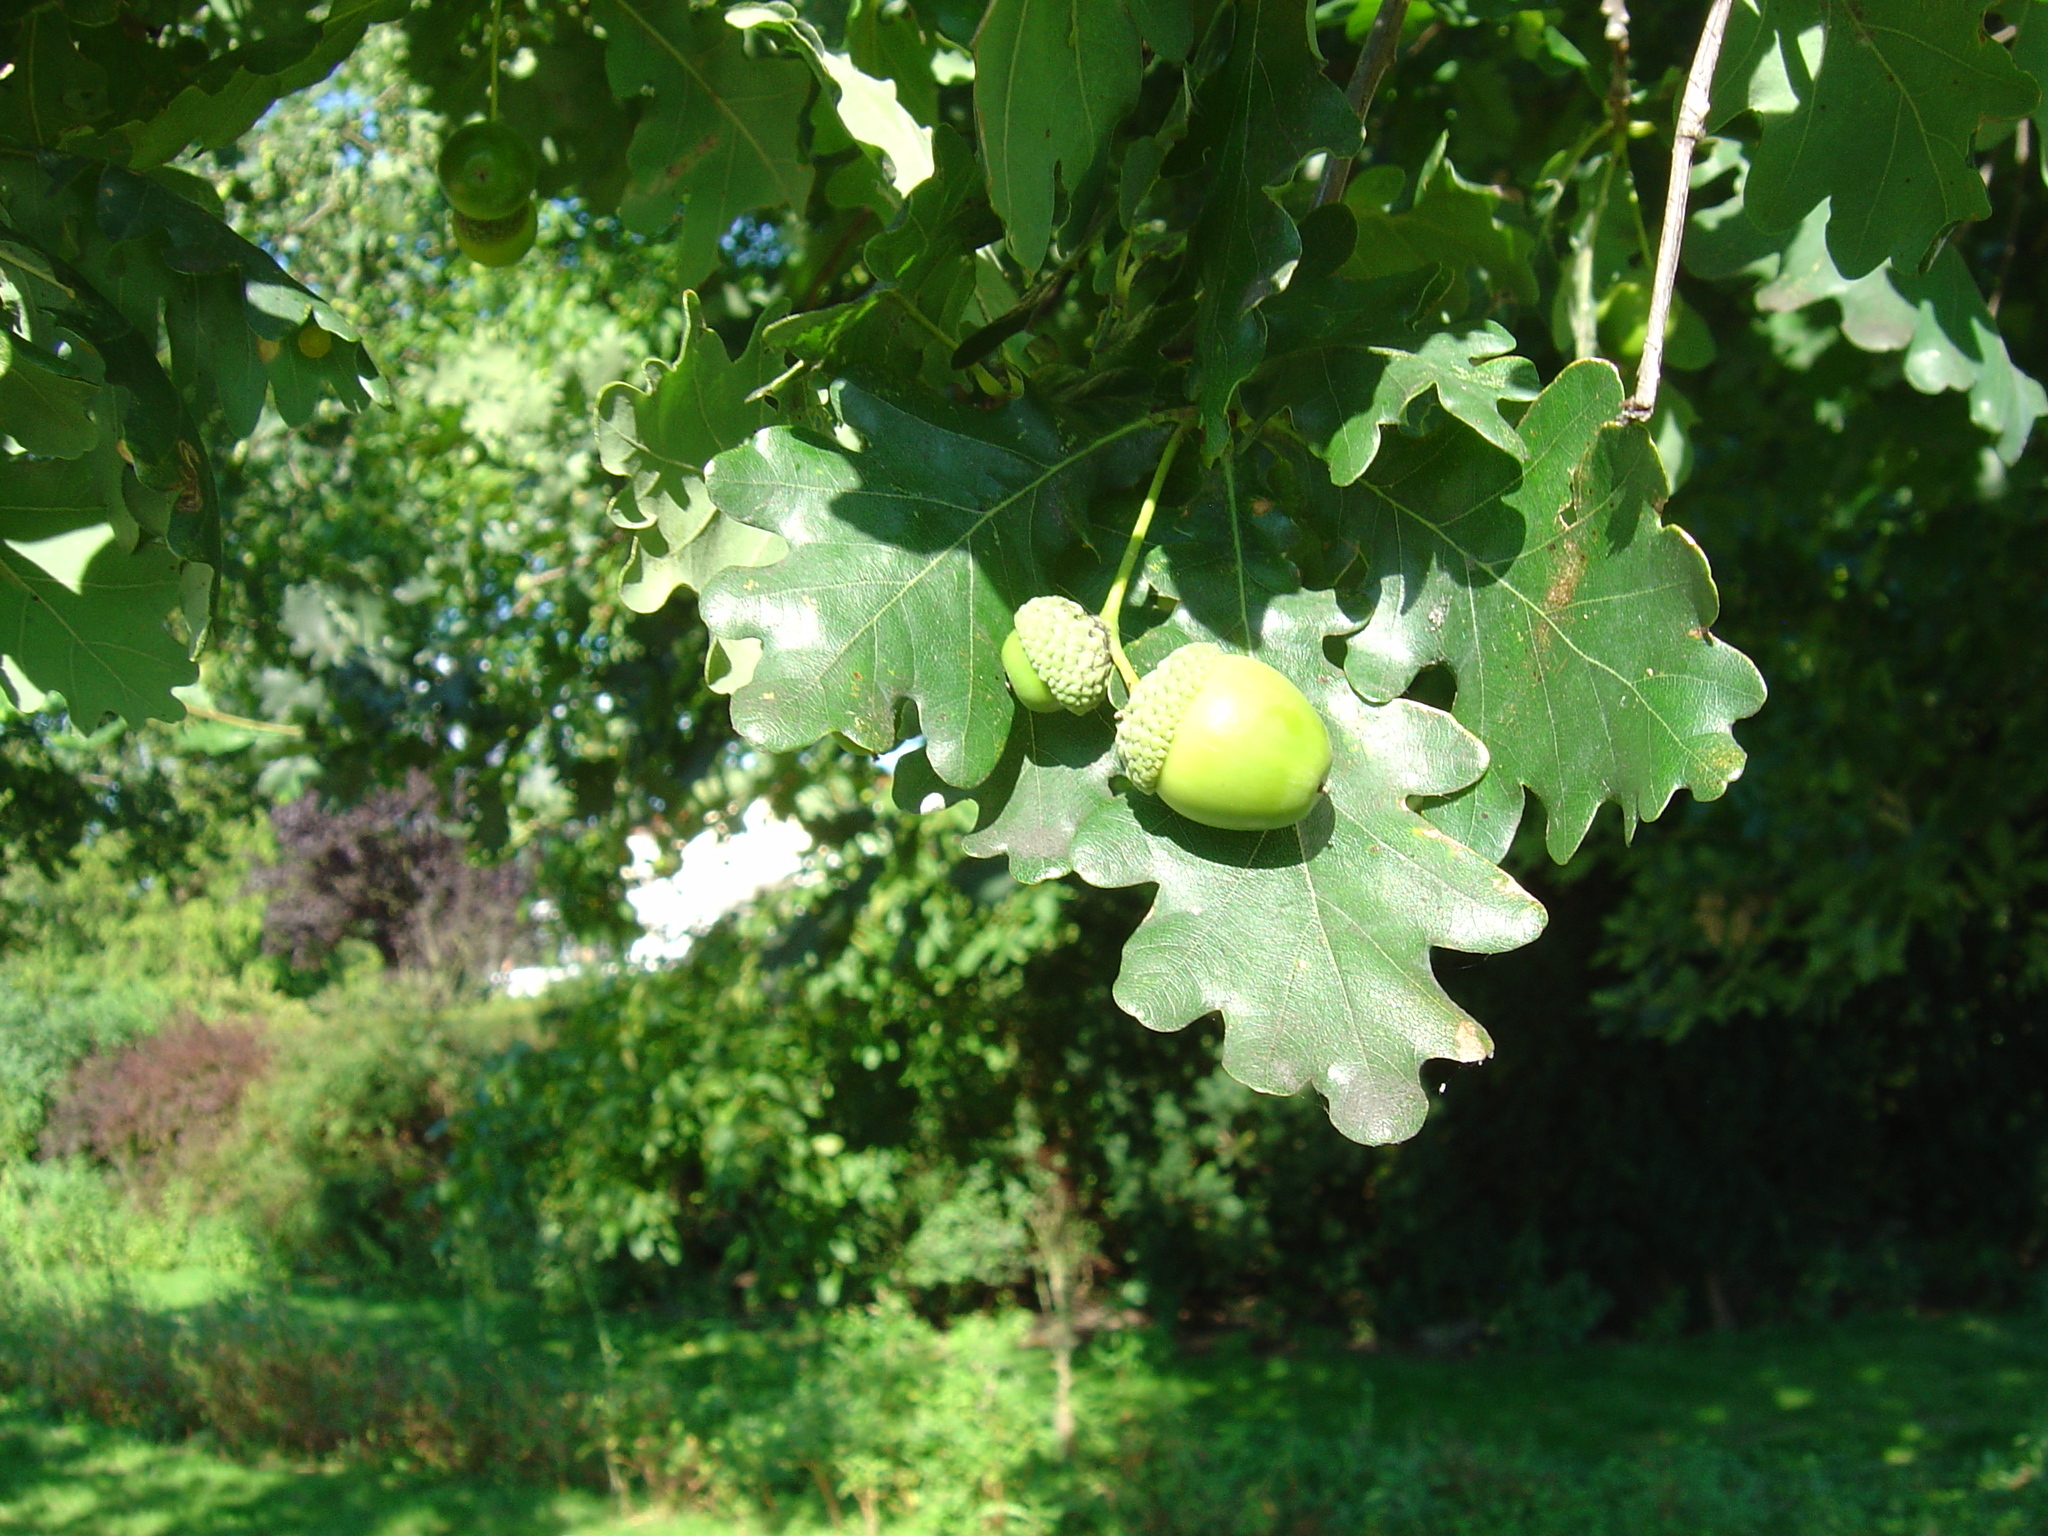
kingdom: Plantae
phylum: Tracheophyta
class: Magnoliopsida
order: Fagales
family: Fagaceae
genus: Quercus
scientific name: Quercus robur
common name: Pedunculate oak
